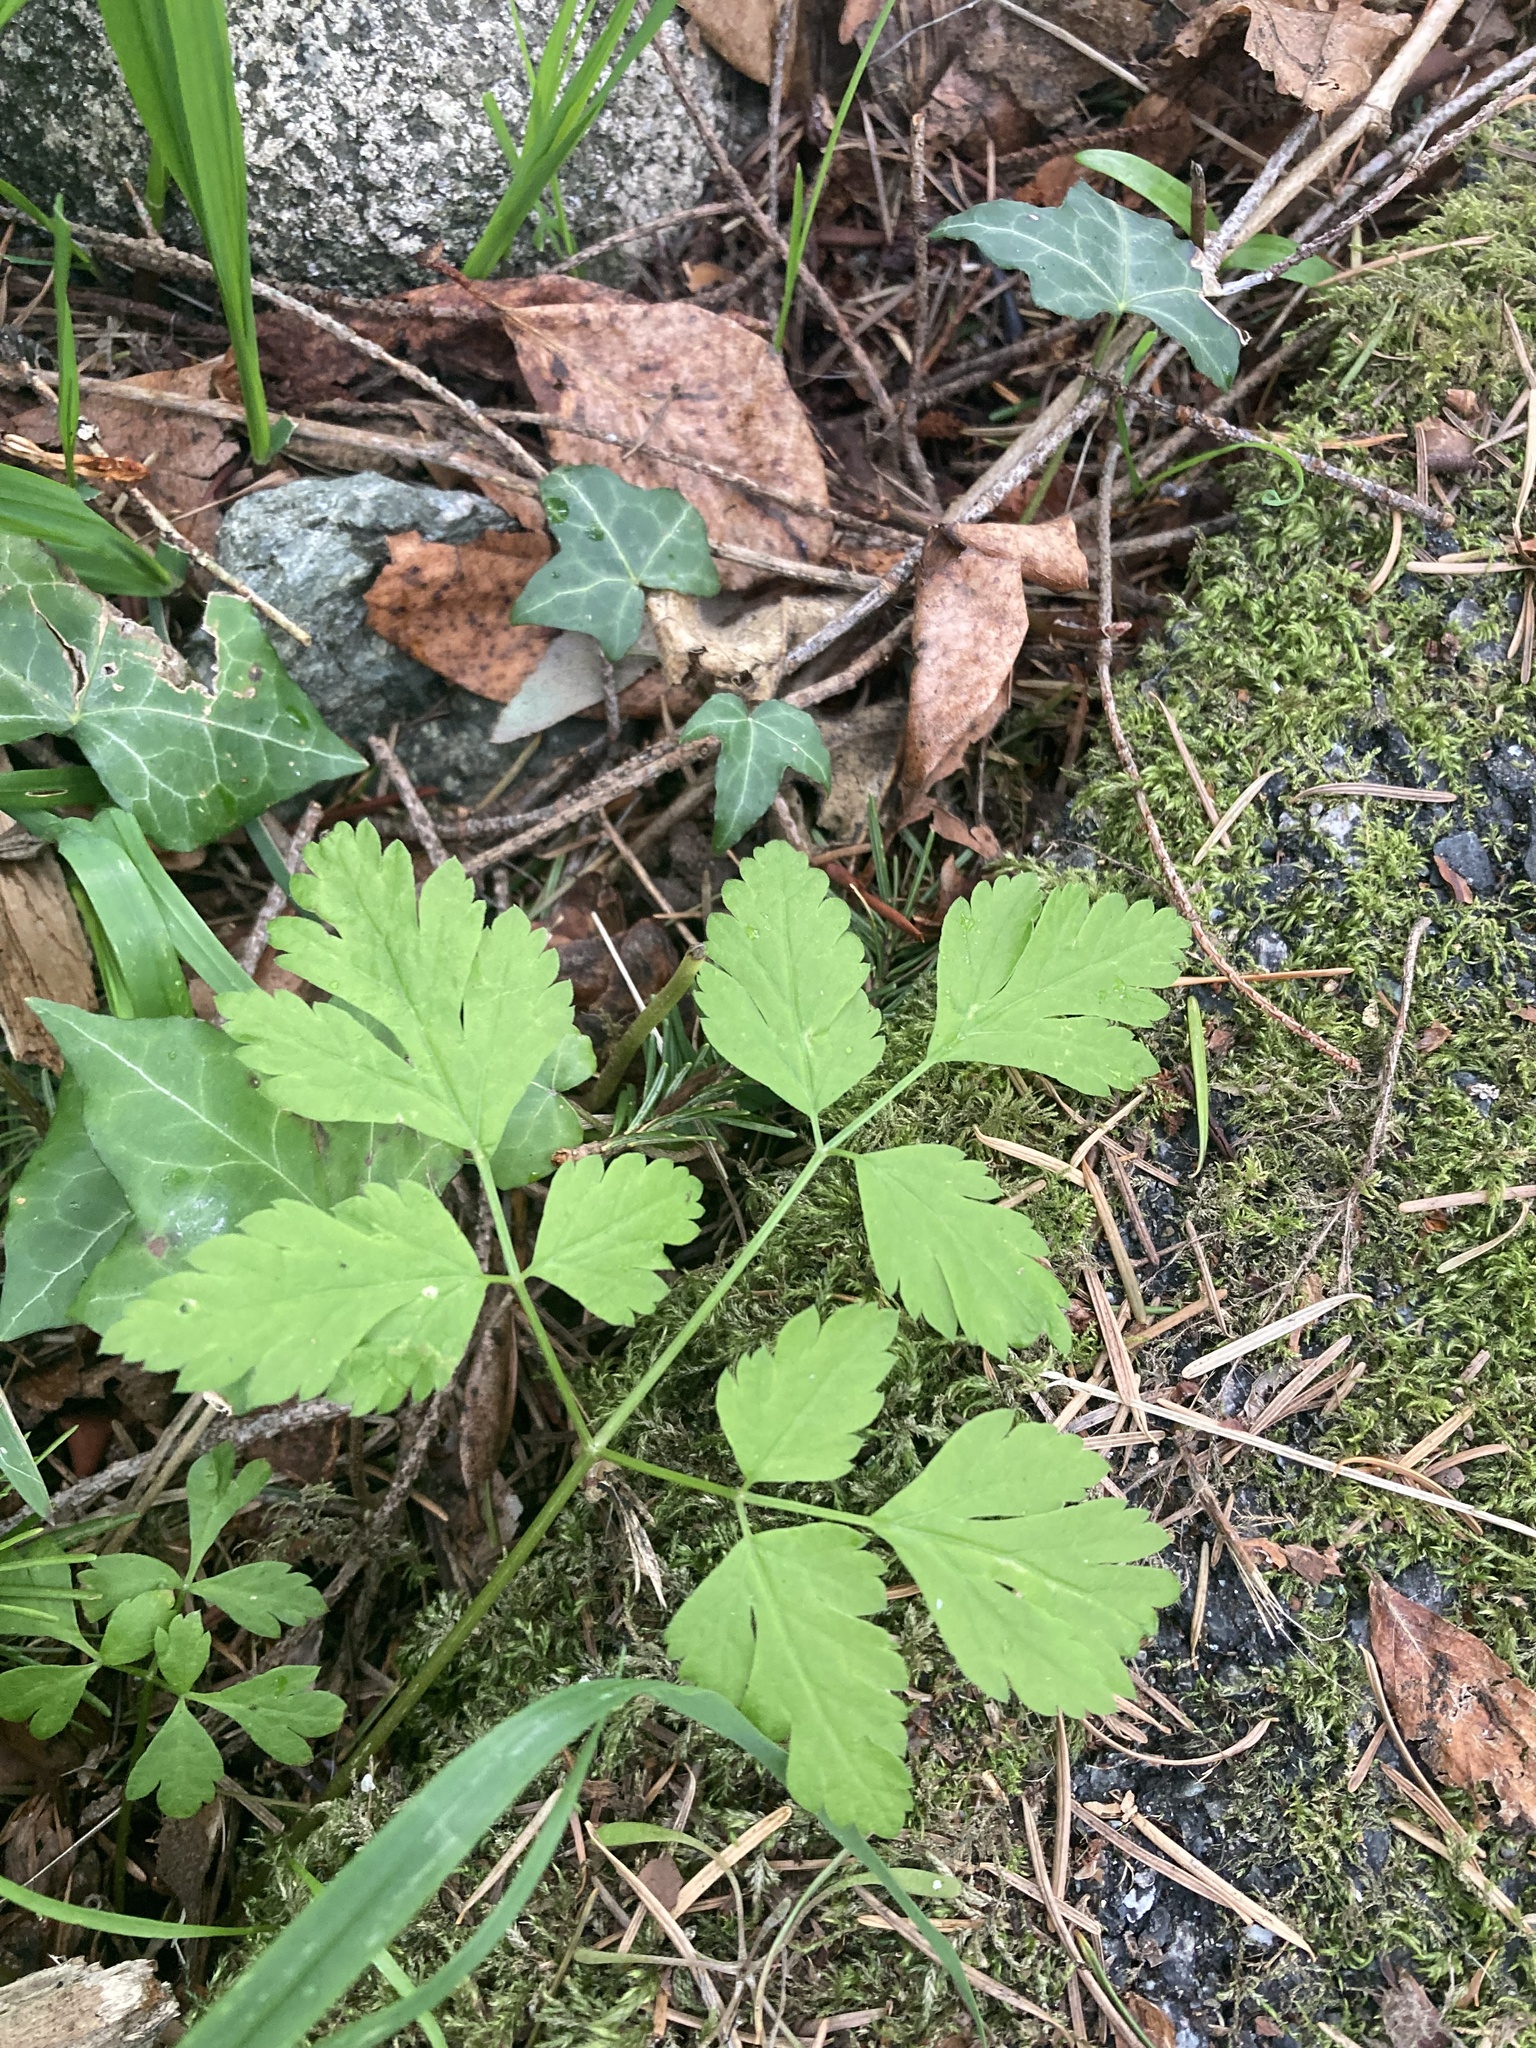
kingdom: Plantae
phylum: Tracheophyta
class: Magnoliopsida
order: Apiales
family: Apiaceae
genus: Osmorhiza
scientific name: Osmorhiza berteroi
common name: Mountain sweet cicely
